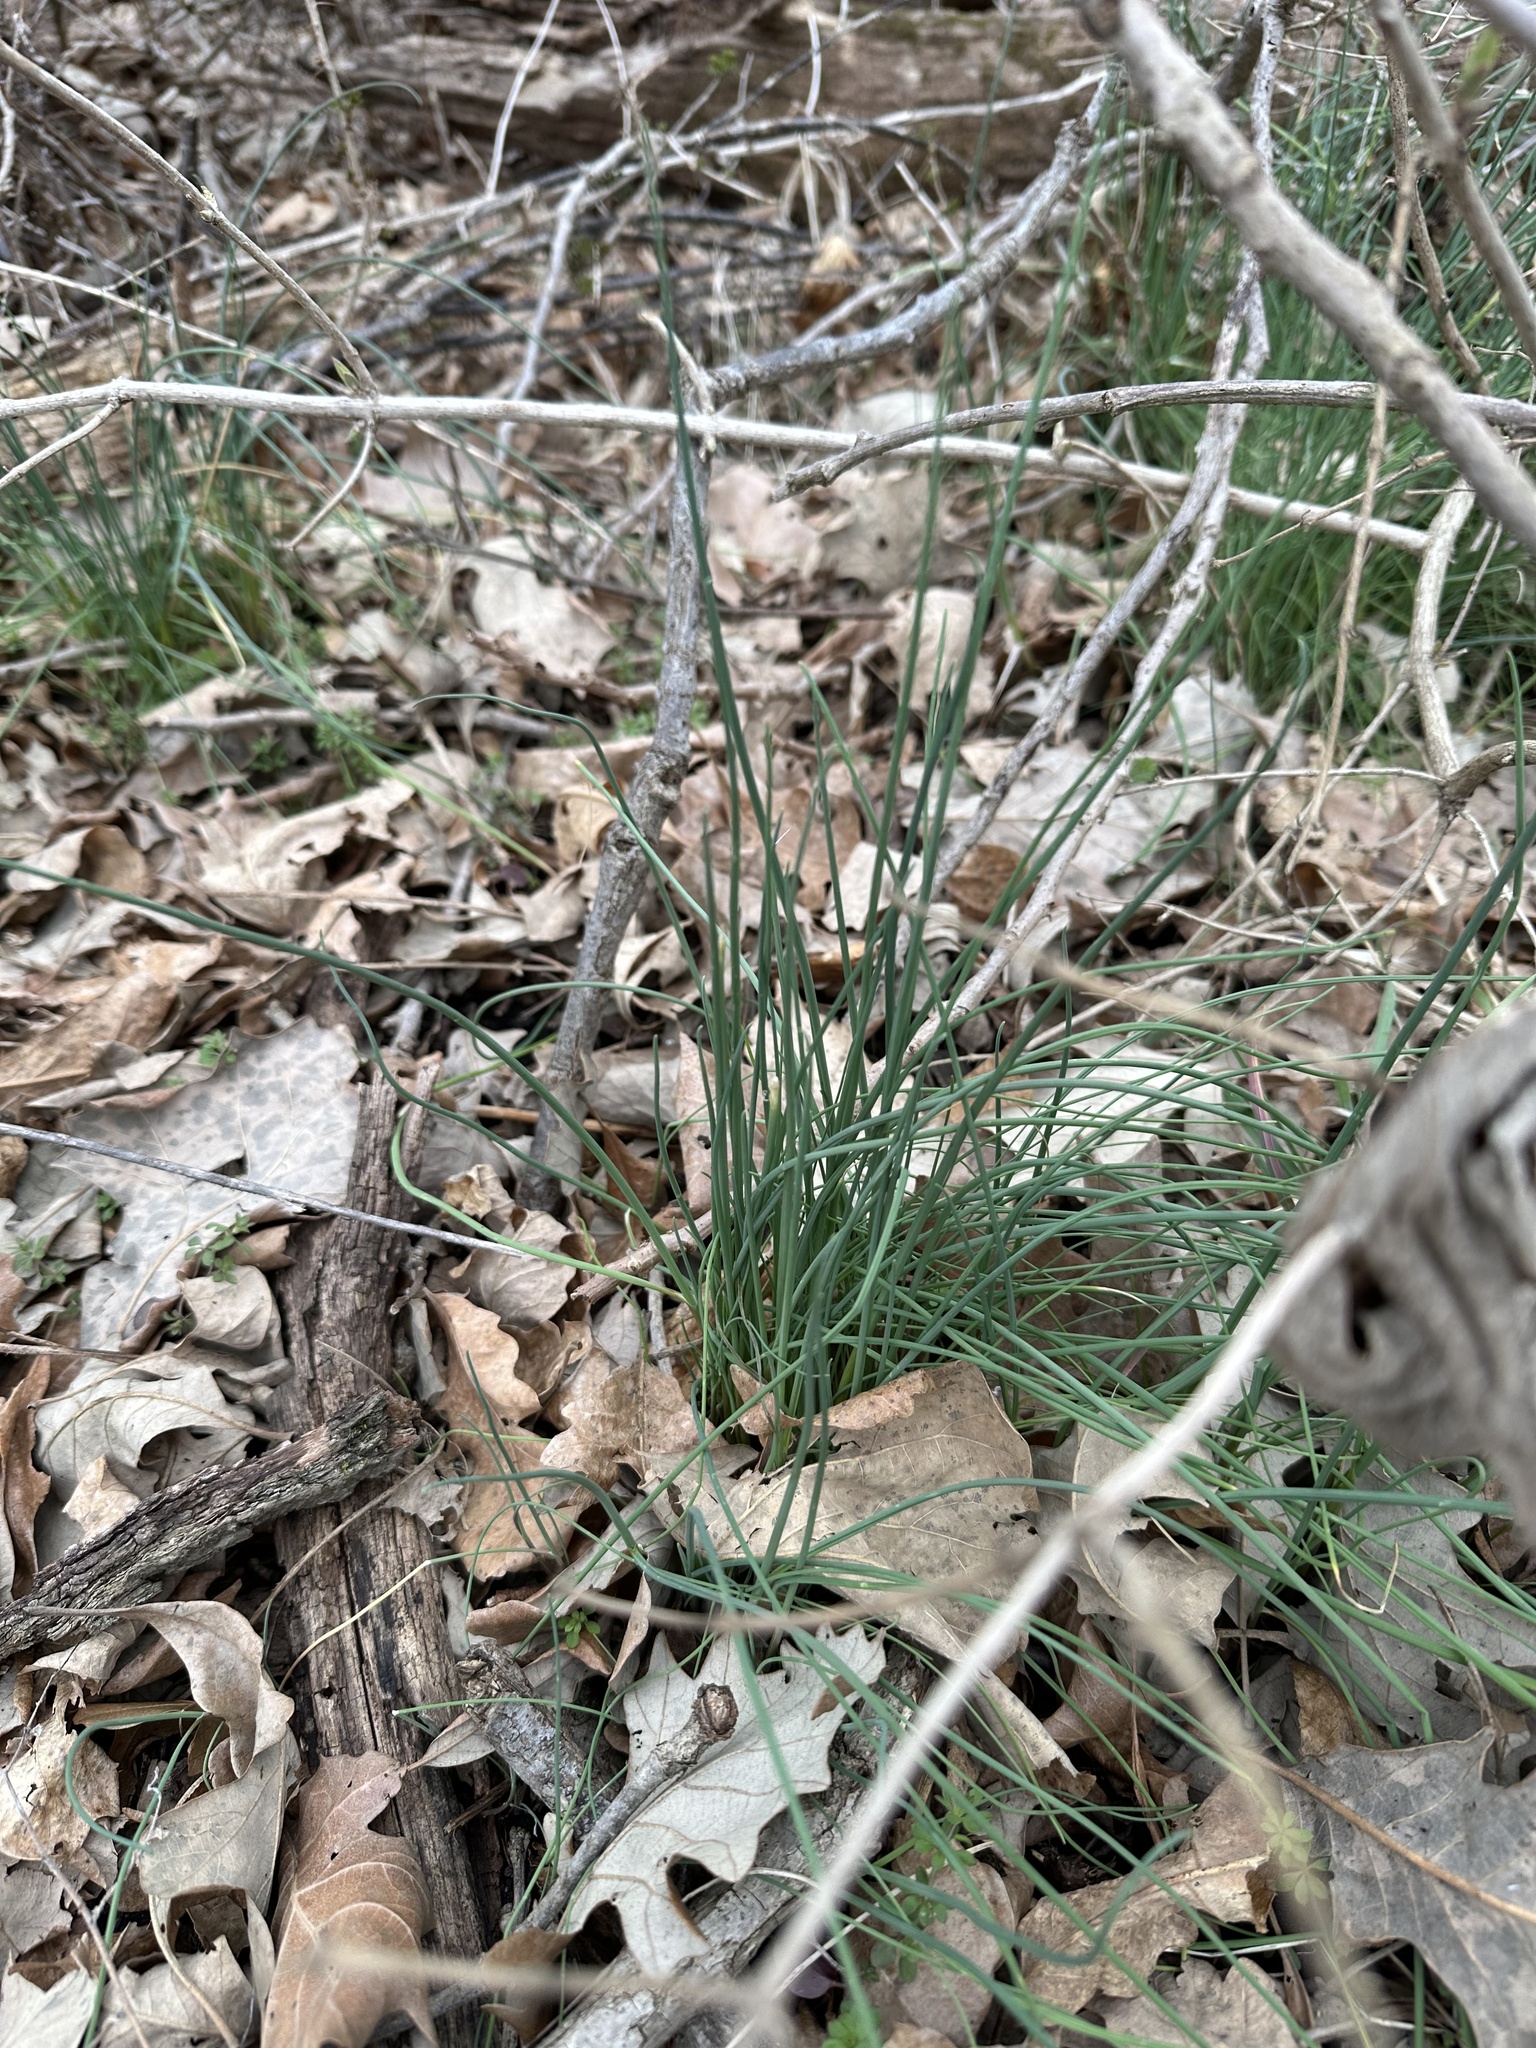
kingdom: Plantae
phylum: Tracheophyta
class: Liliopsida
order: Asparagales
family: Amaryllidaceae
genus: Allium
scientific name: Allium schoenoprasum
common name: Chives
